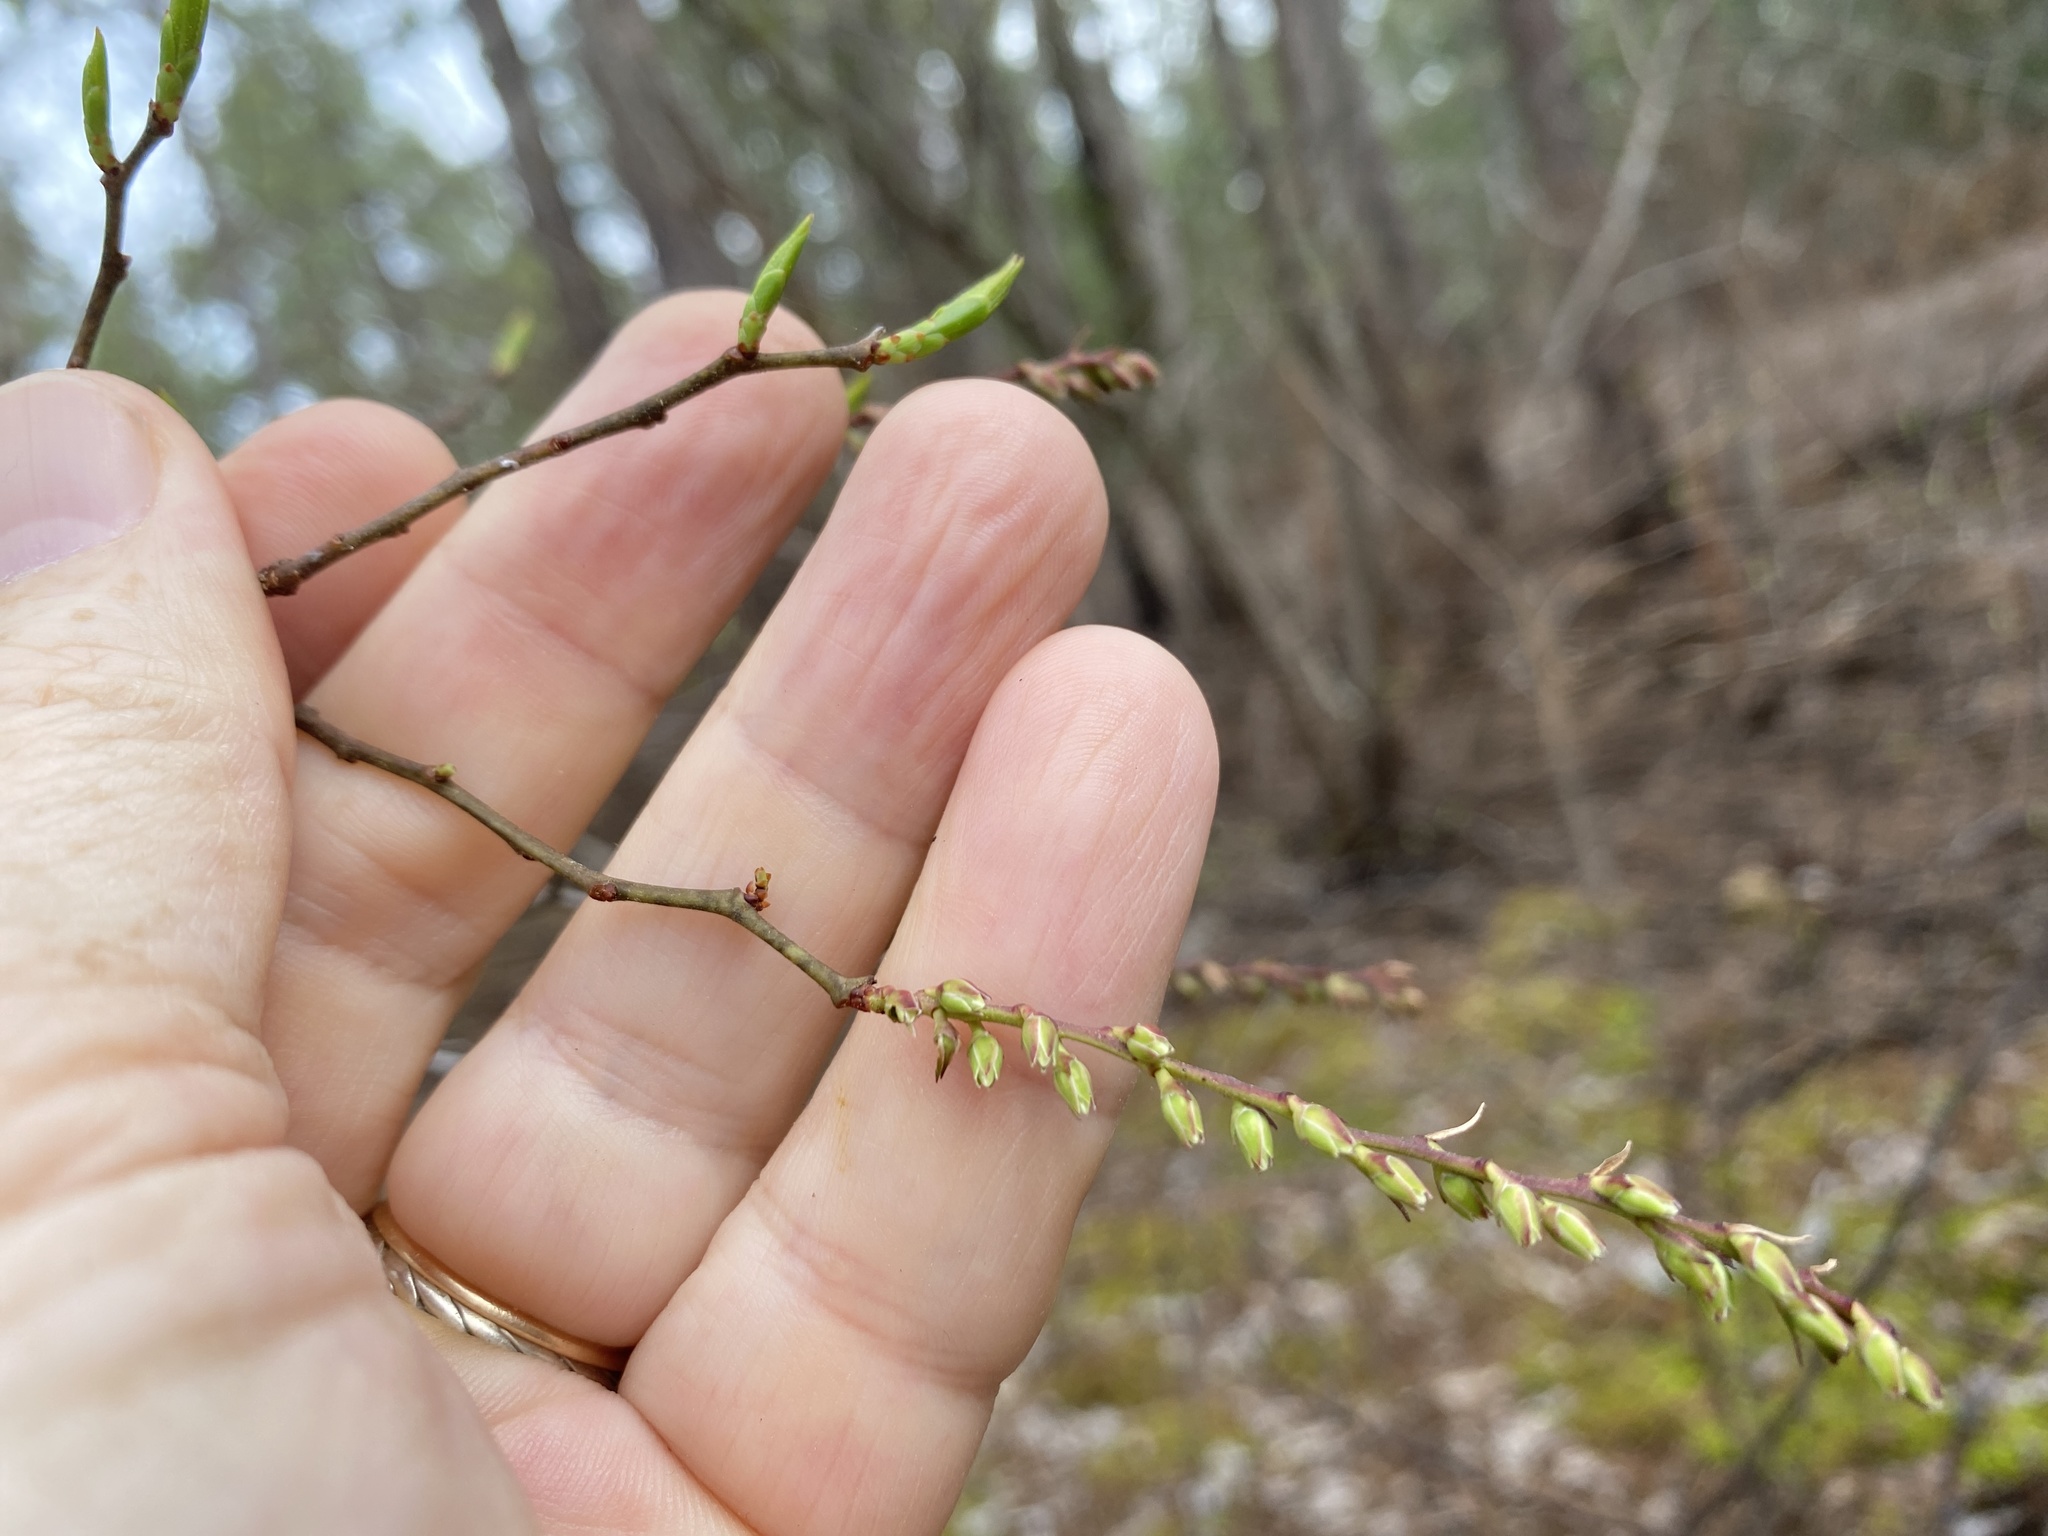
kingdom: Plantae
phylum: Tracheophyta
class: Magnoliopsida
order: Ericales
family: Ericaceae
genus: Eubotrys
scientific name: Eubotrys racemosa
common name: Fetterbush
